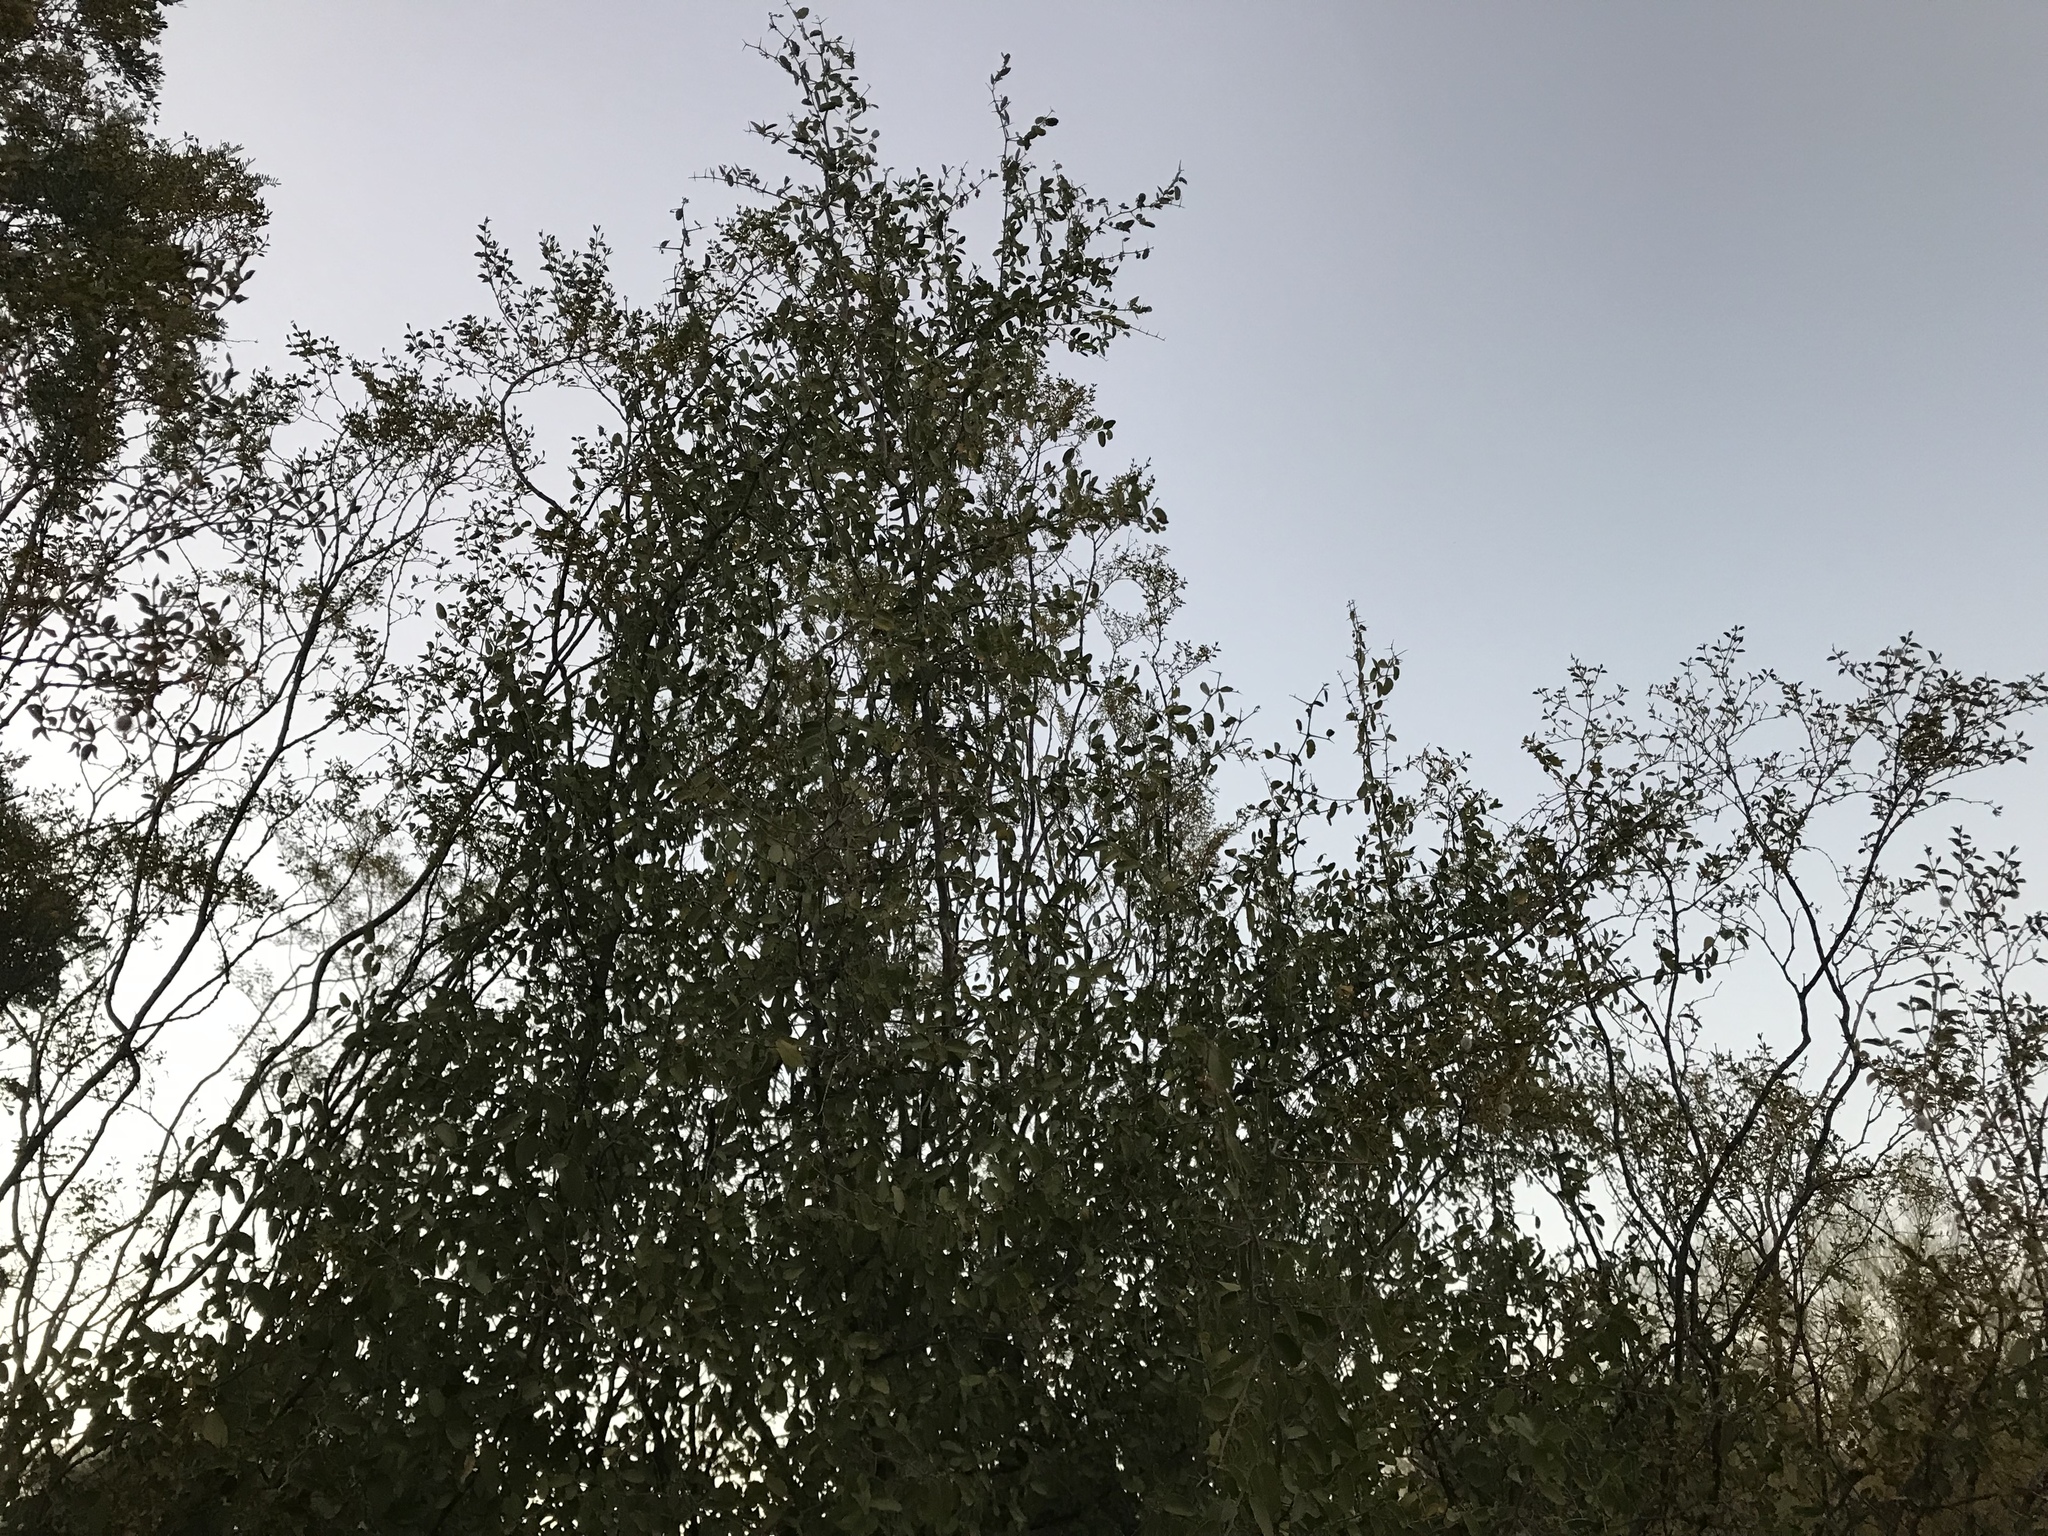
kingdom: Plantae
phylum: Tracheophyta
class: Magnoliopsida
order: Fabales
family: Fabaceae
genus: Vachellia
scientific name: Vachellia constricta
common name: Mescat acacia
